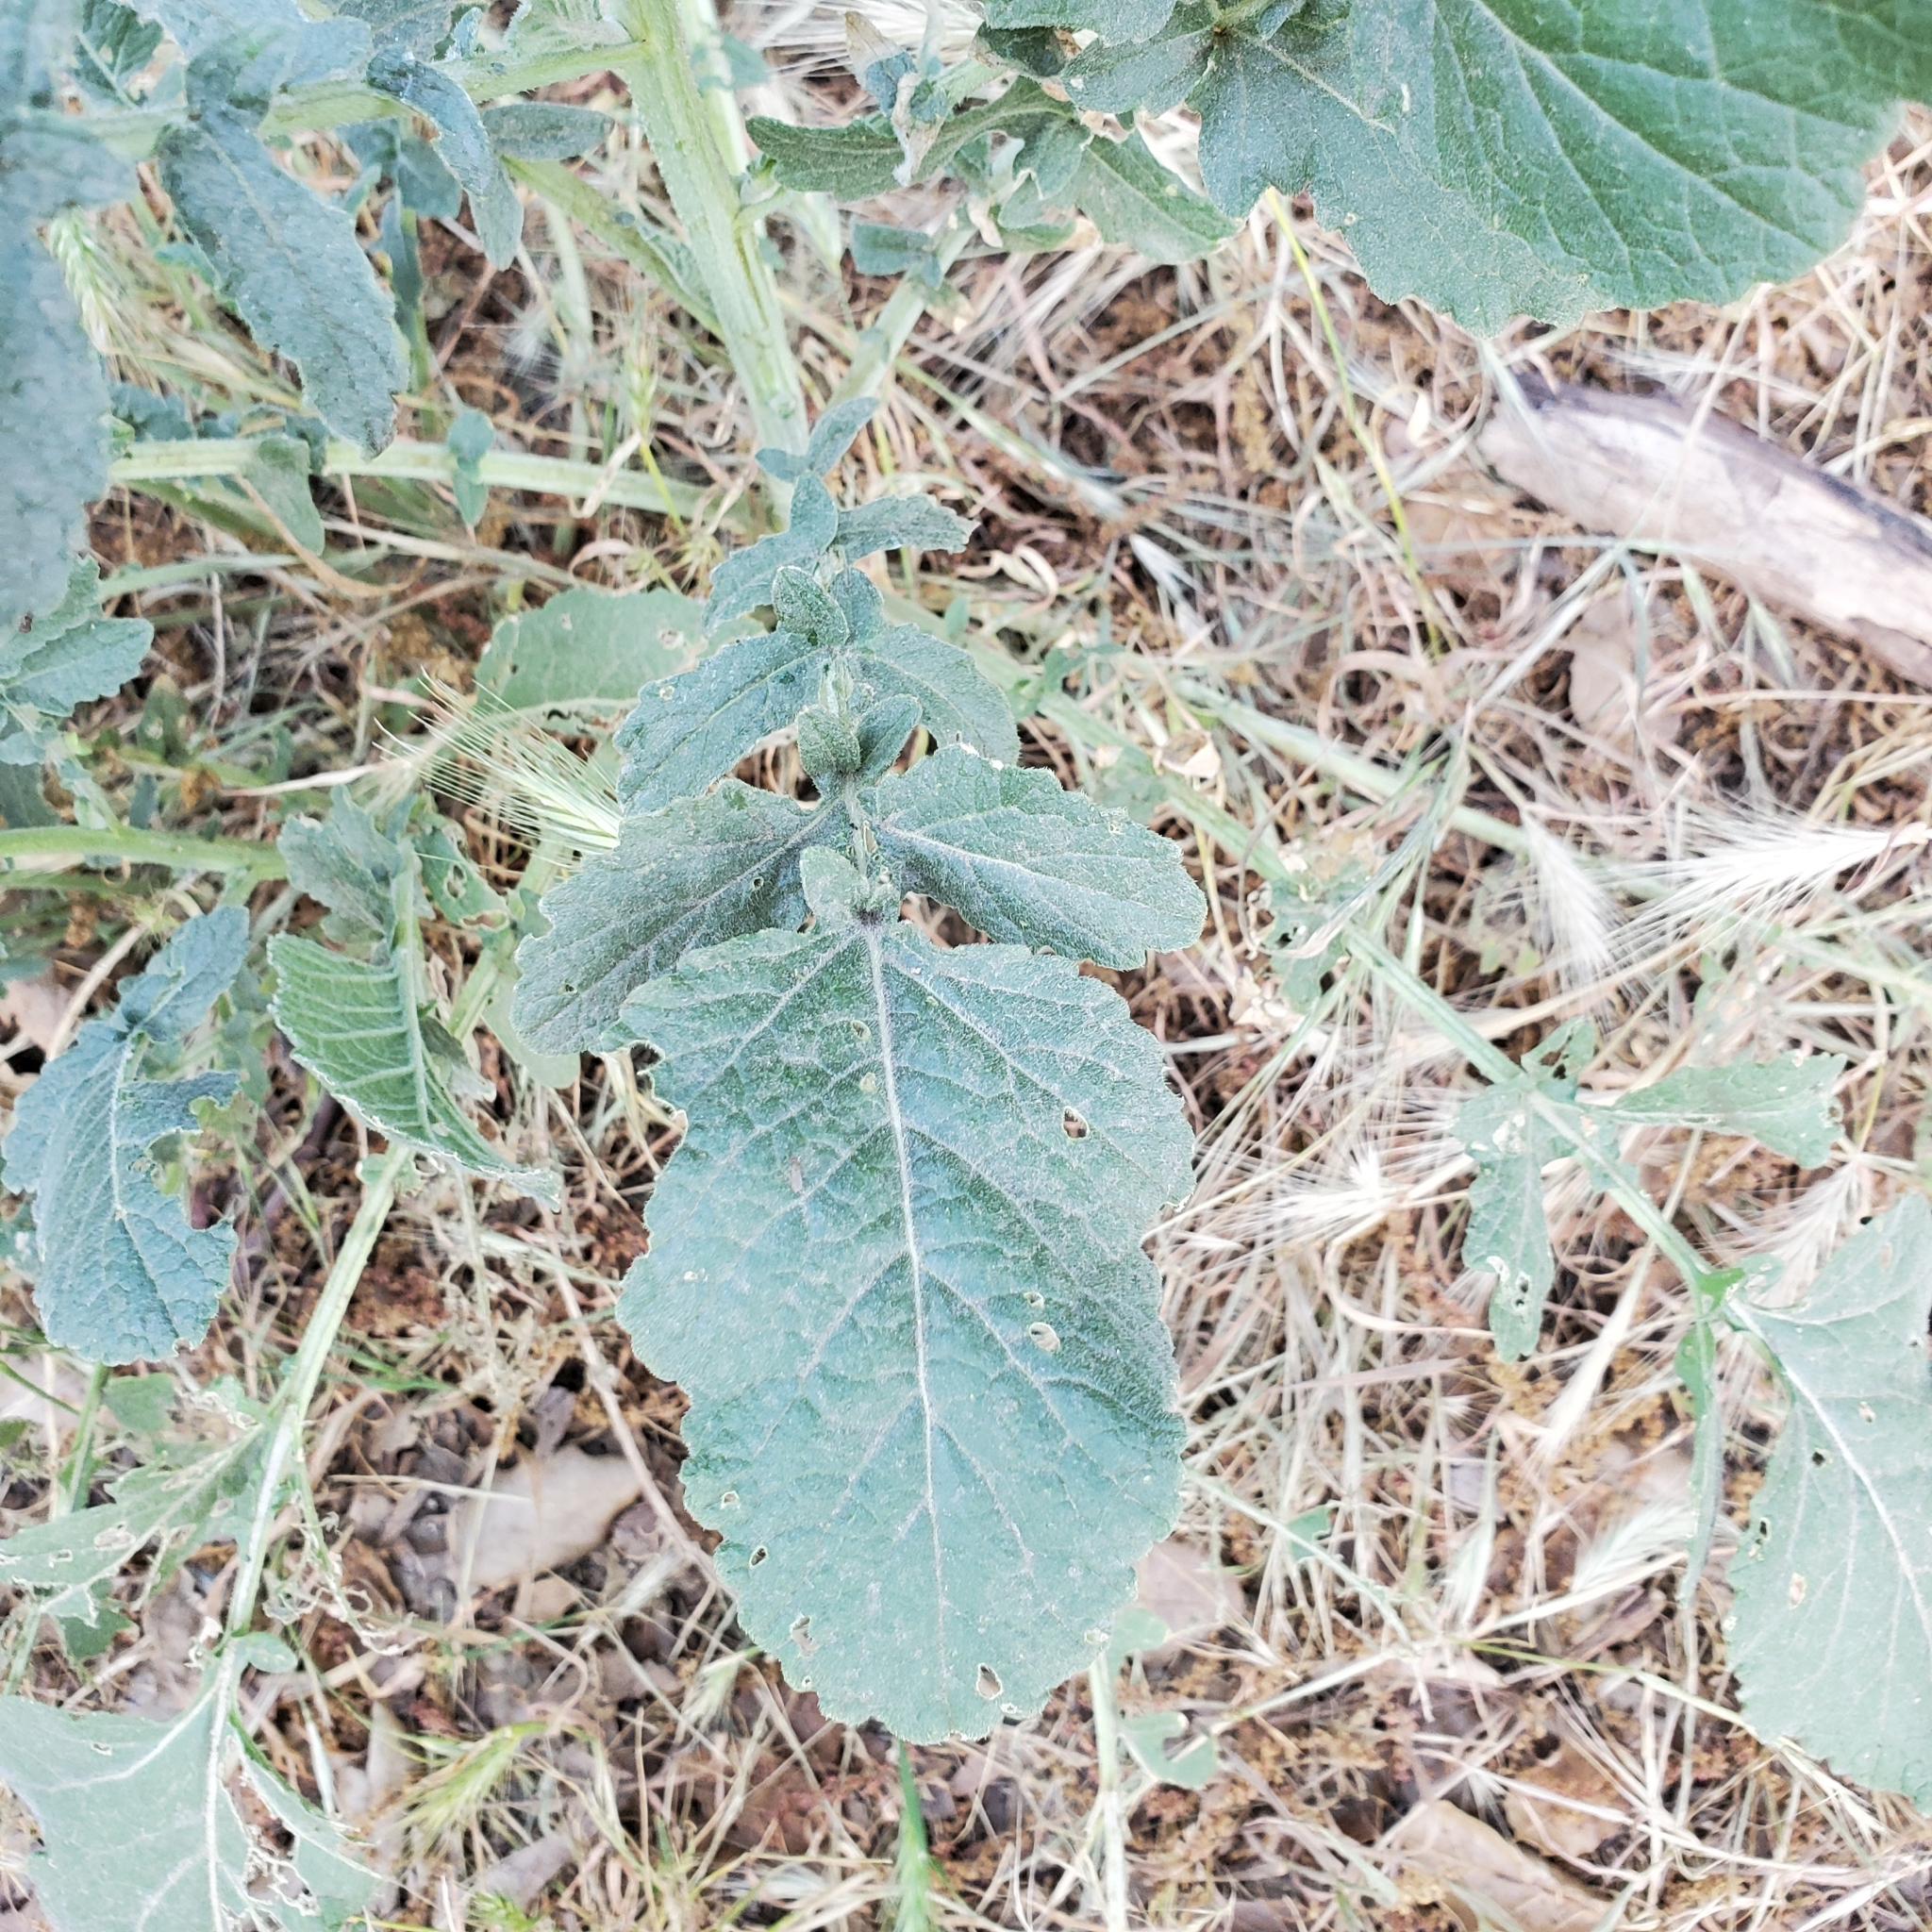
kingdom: Plantae
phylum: Tracheophyta
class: Magnoliopsida
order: Brassicales
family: Brassicaceae
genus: Hirschfeldia
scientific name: Hirschfeldia incana
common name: Hoary mustard
